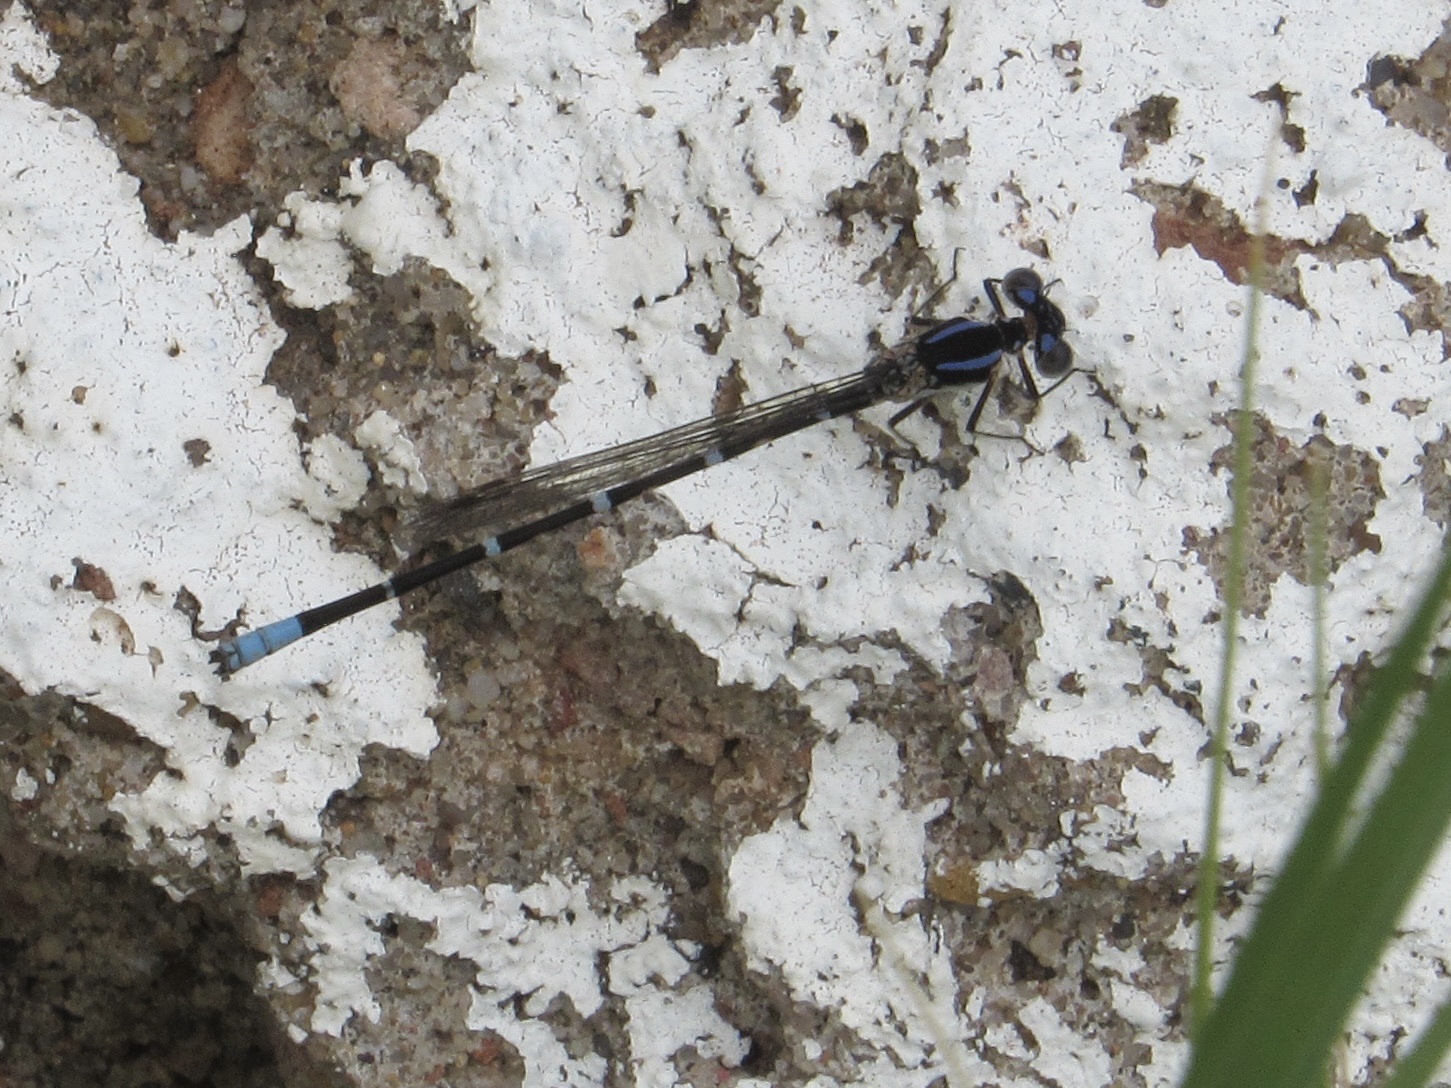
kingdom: Animalia
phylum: Arthropoda
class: Insecta
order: Odonata
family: Coenagrionidae
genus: Argia
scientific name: Argia sedula
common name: Blue-ringed dancer
